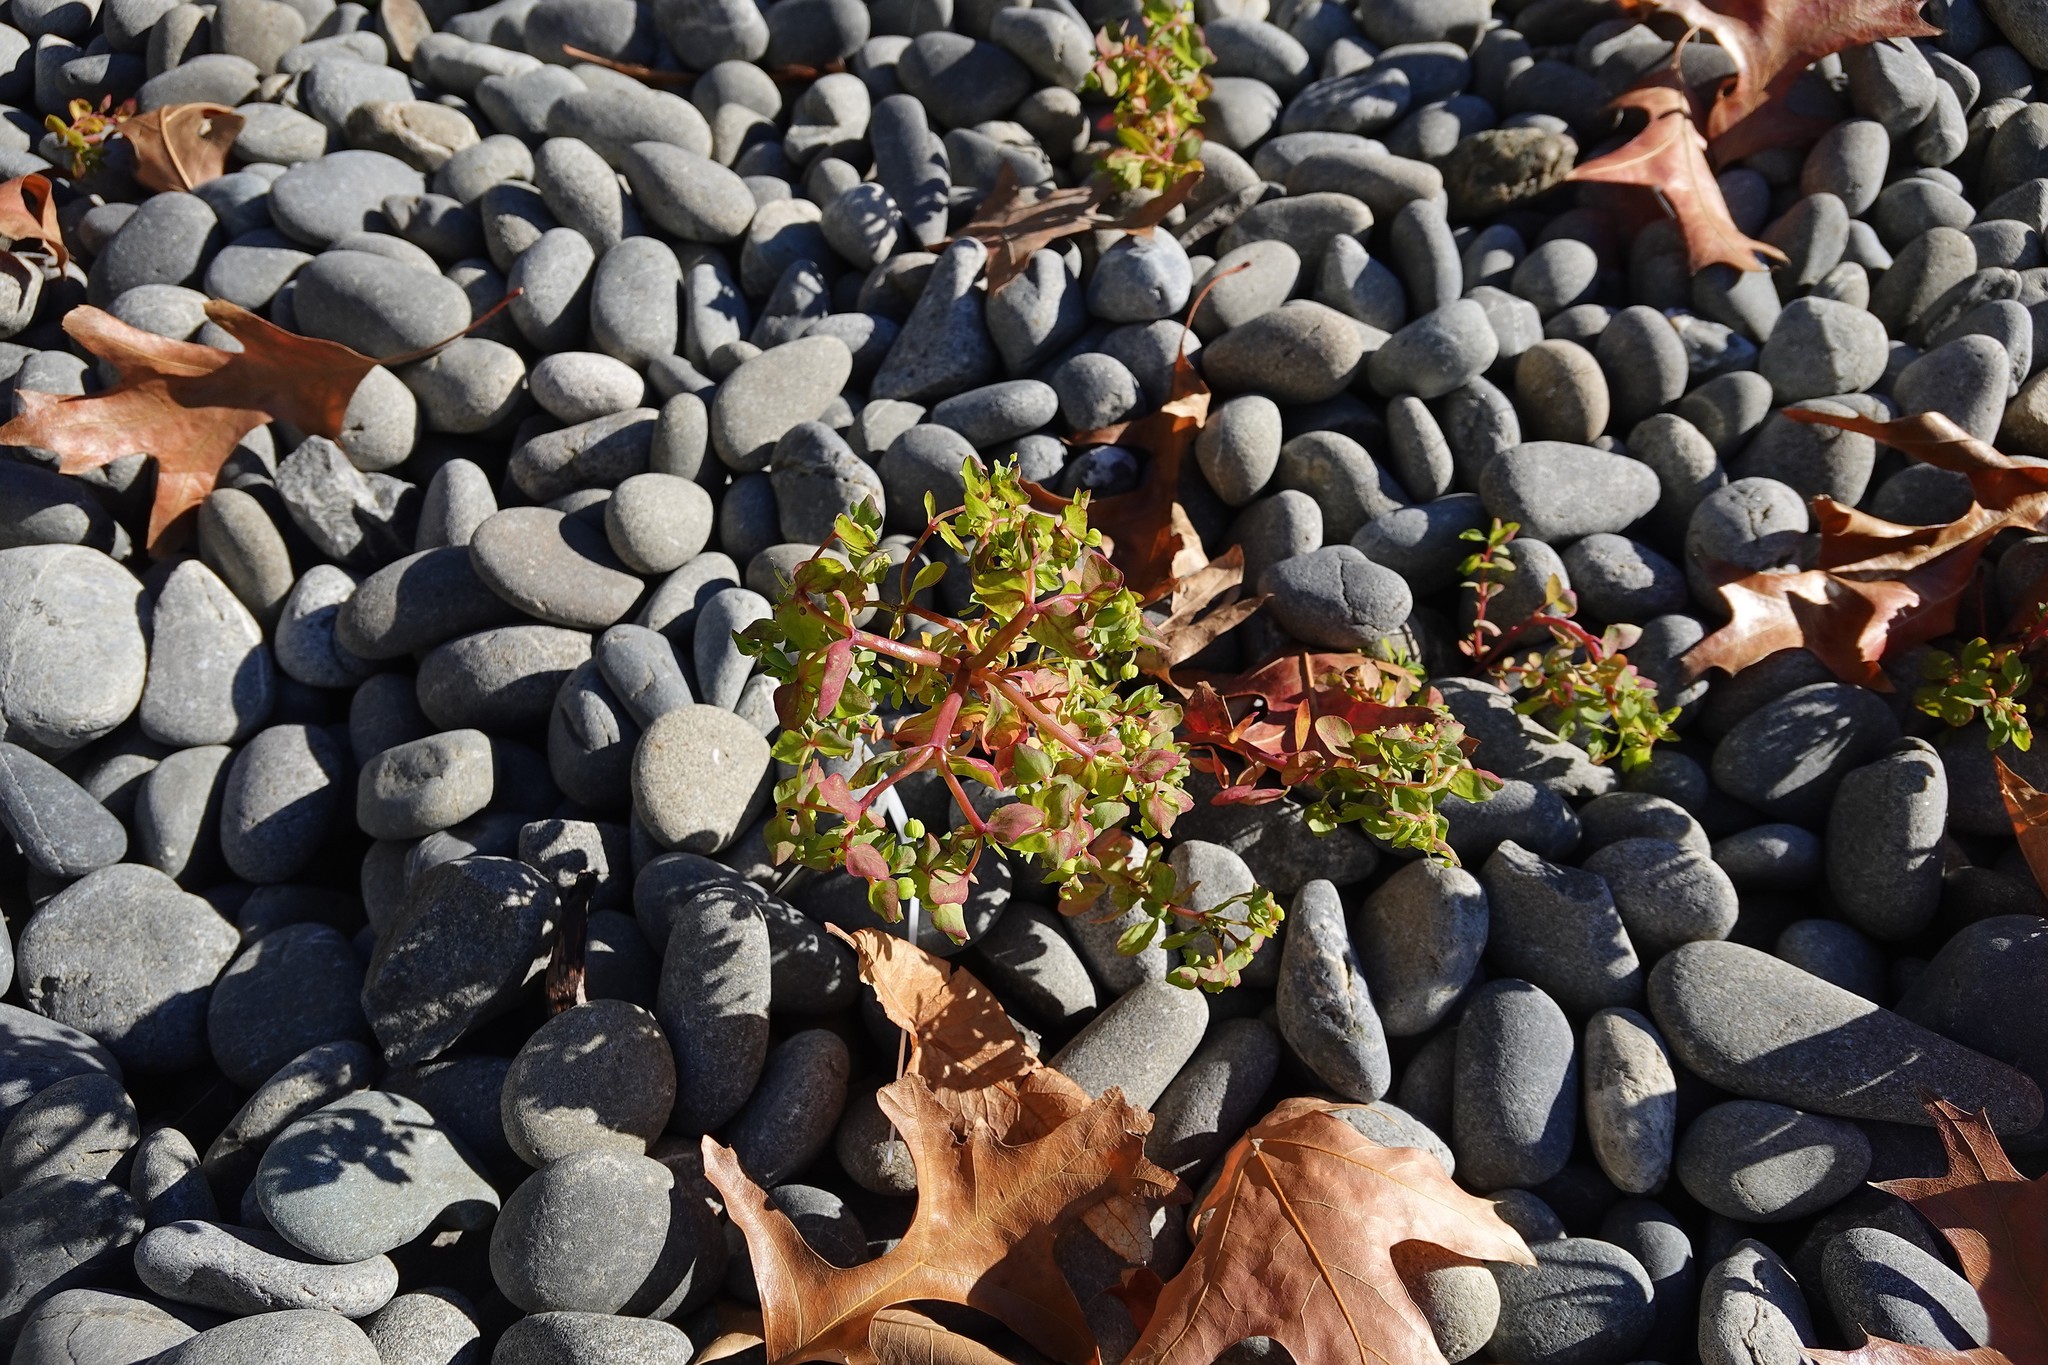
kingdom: Plantae
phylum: Tracheophyta
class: Magnoliopsida
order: Malpighiales
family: Euphorbiaceae
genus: Euphorbia
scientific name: Euphorbia peplus
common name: Petty spurge
